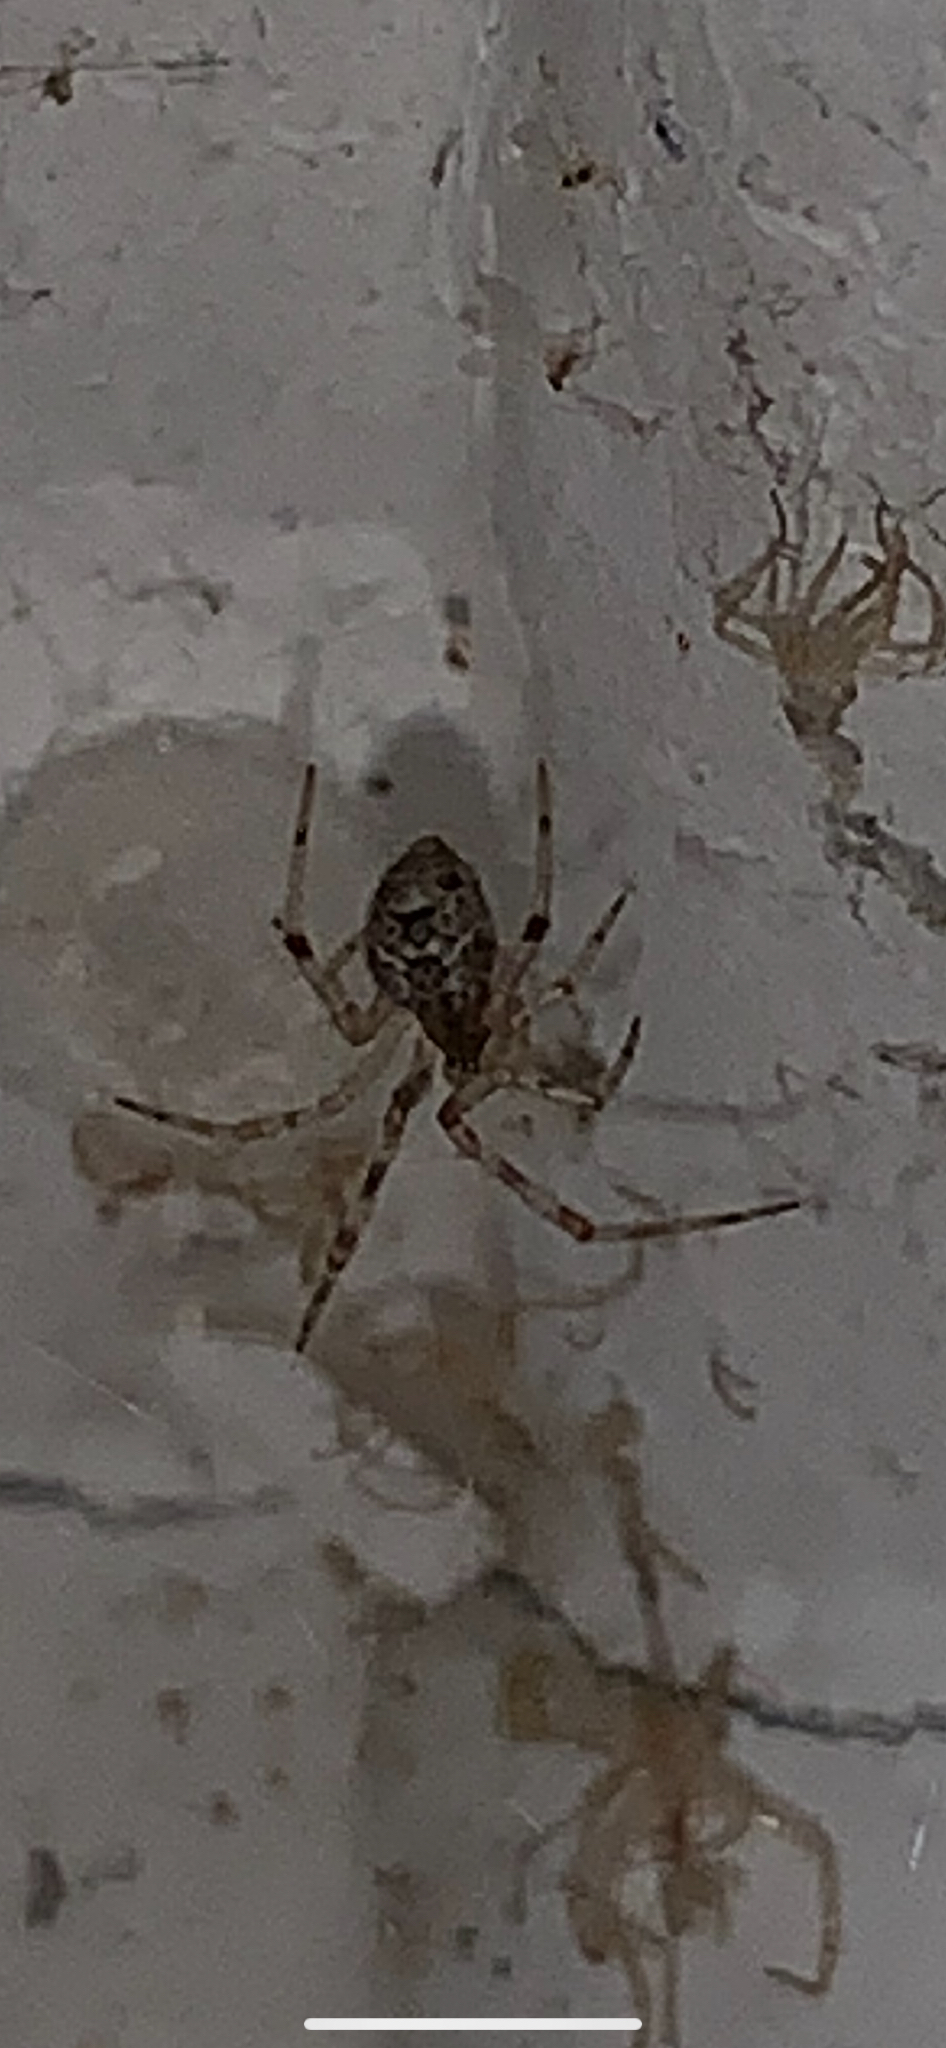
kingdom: Animalia
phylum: Arthropoda
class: Arachnida
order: Araneae
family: Theridiidae
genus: Parasteatoda
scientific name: Parasteatoda tepidariorum
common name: Common house spider
